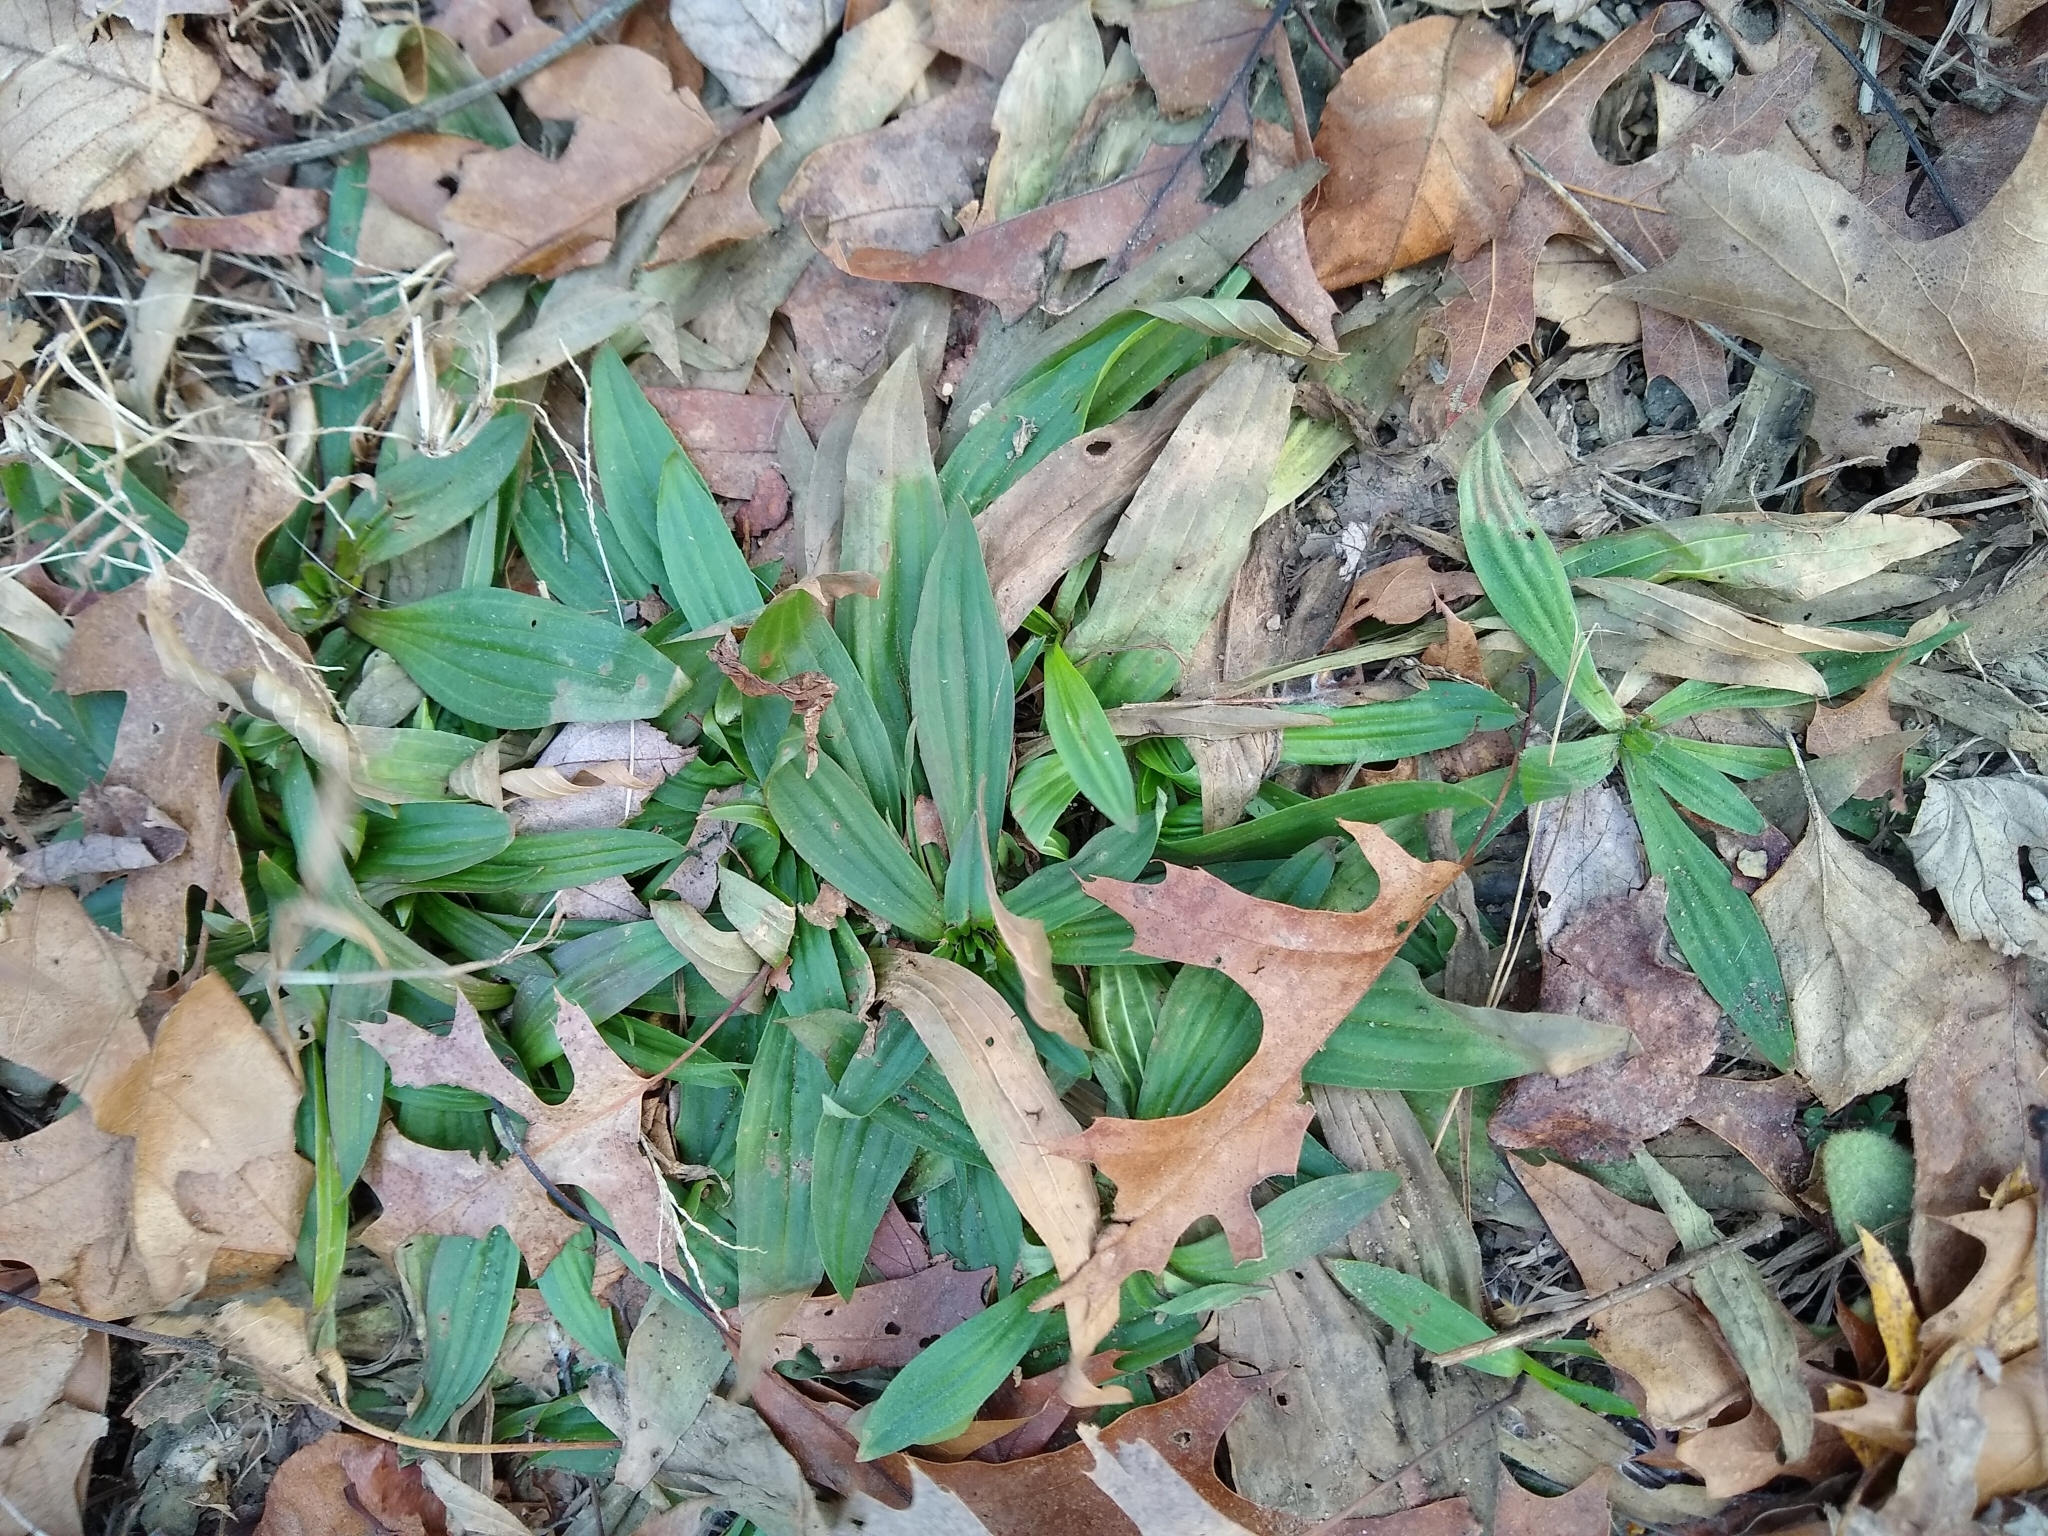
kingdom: Plantae
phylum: Tracheophyta
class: Magnoliopsida
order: Lamiales
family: Plantaginaceae
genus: Plantago
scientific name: Plantago lanceolata
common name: Ribwort plantain
